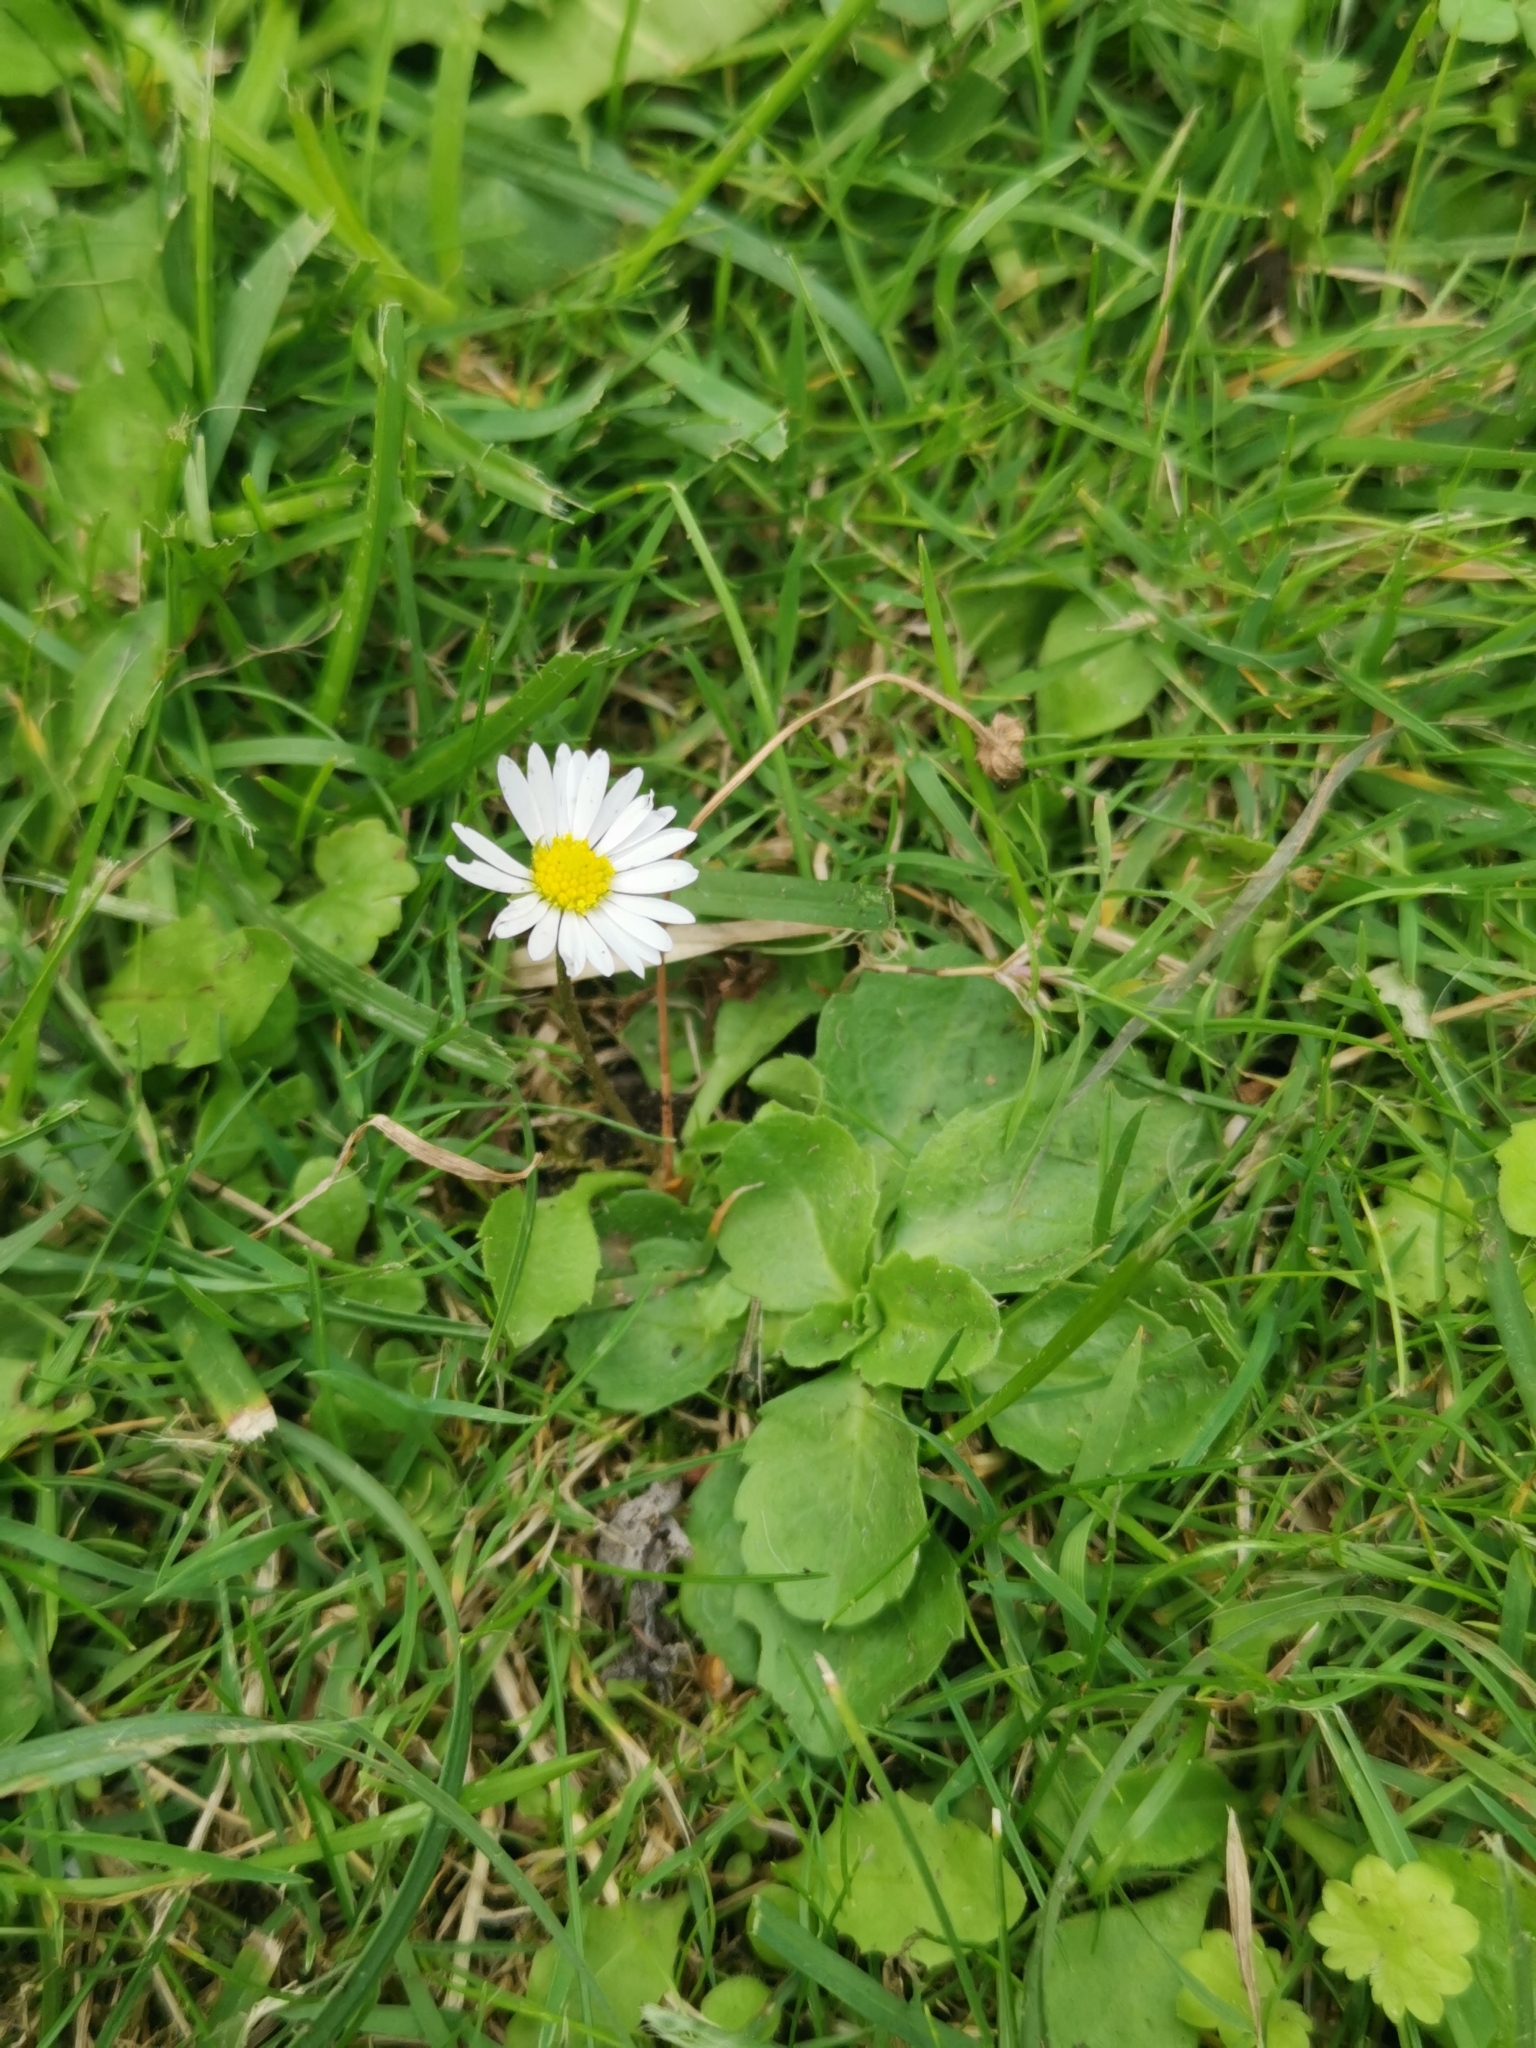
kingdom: Plantae
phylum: Tracheophyta
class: Magnoliopsida
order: Asterales
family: Asteraceae
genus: Bellis
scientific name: Bellis perennis
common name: Lawndaisy
